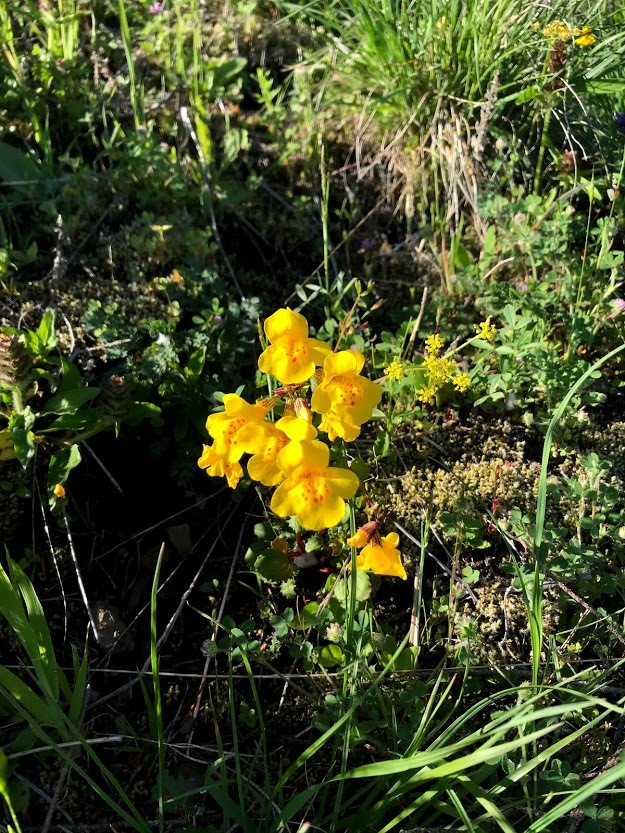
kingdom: Plantae
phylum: Tracheophyta
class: Magnoliopsida
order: Lamiales
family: Phrymaceae
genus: Erythranthe
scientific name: Erythranthe guttata
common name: Monkeyflower
